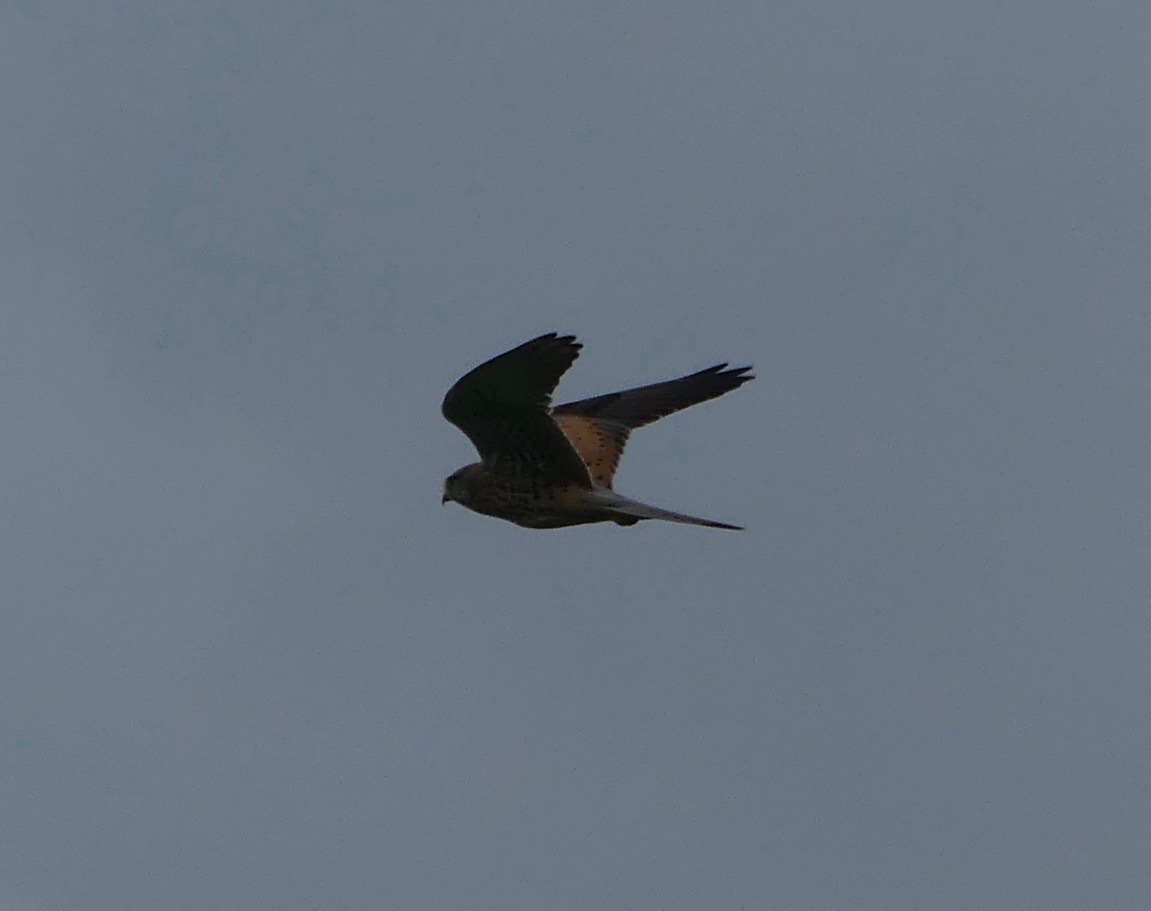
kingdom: Animalia
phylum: Chordata
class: Aves
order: Falconiformes
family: Falconidae
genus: Falco
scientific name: Falco tinnunculus
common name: Common kestrel
